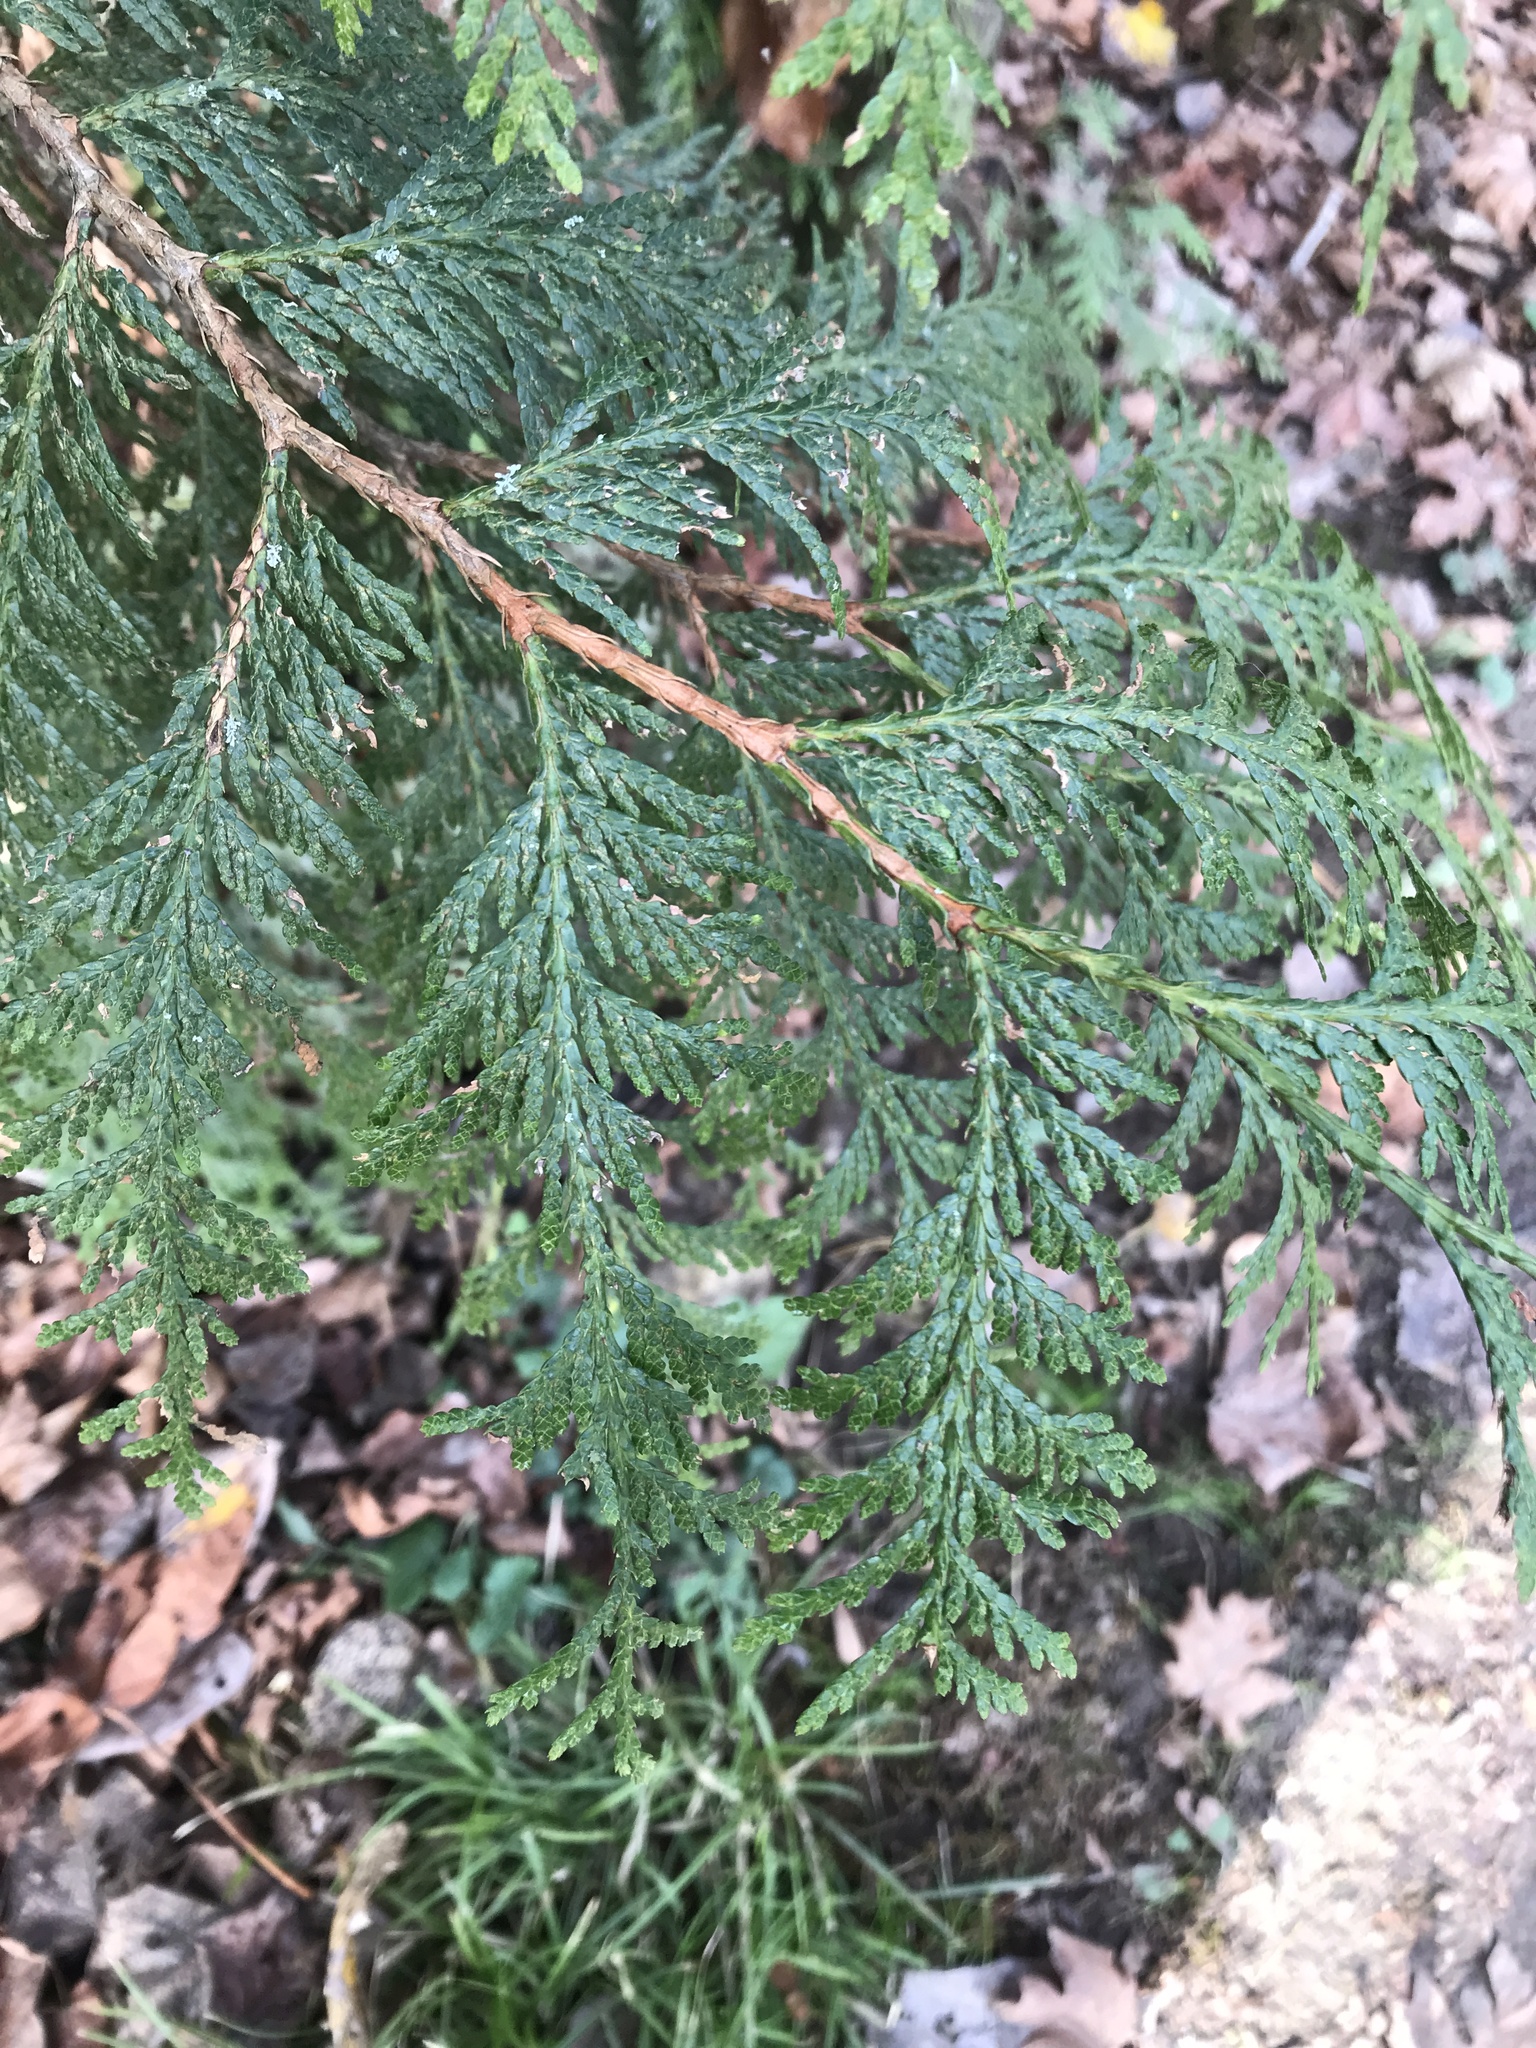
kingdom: Plantae
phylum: Tracheophyta
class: Pinopsida
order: Pinales
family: Cupressaceae
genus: Thuja
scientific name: Thuja plicata
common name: Western red-cedar
